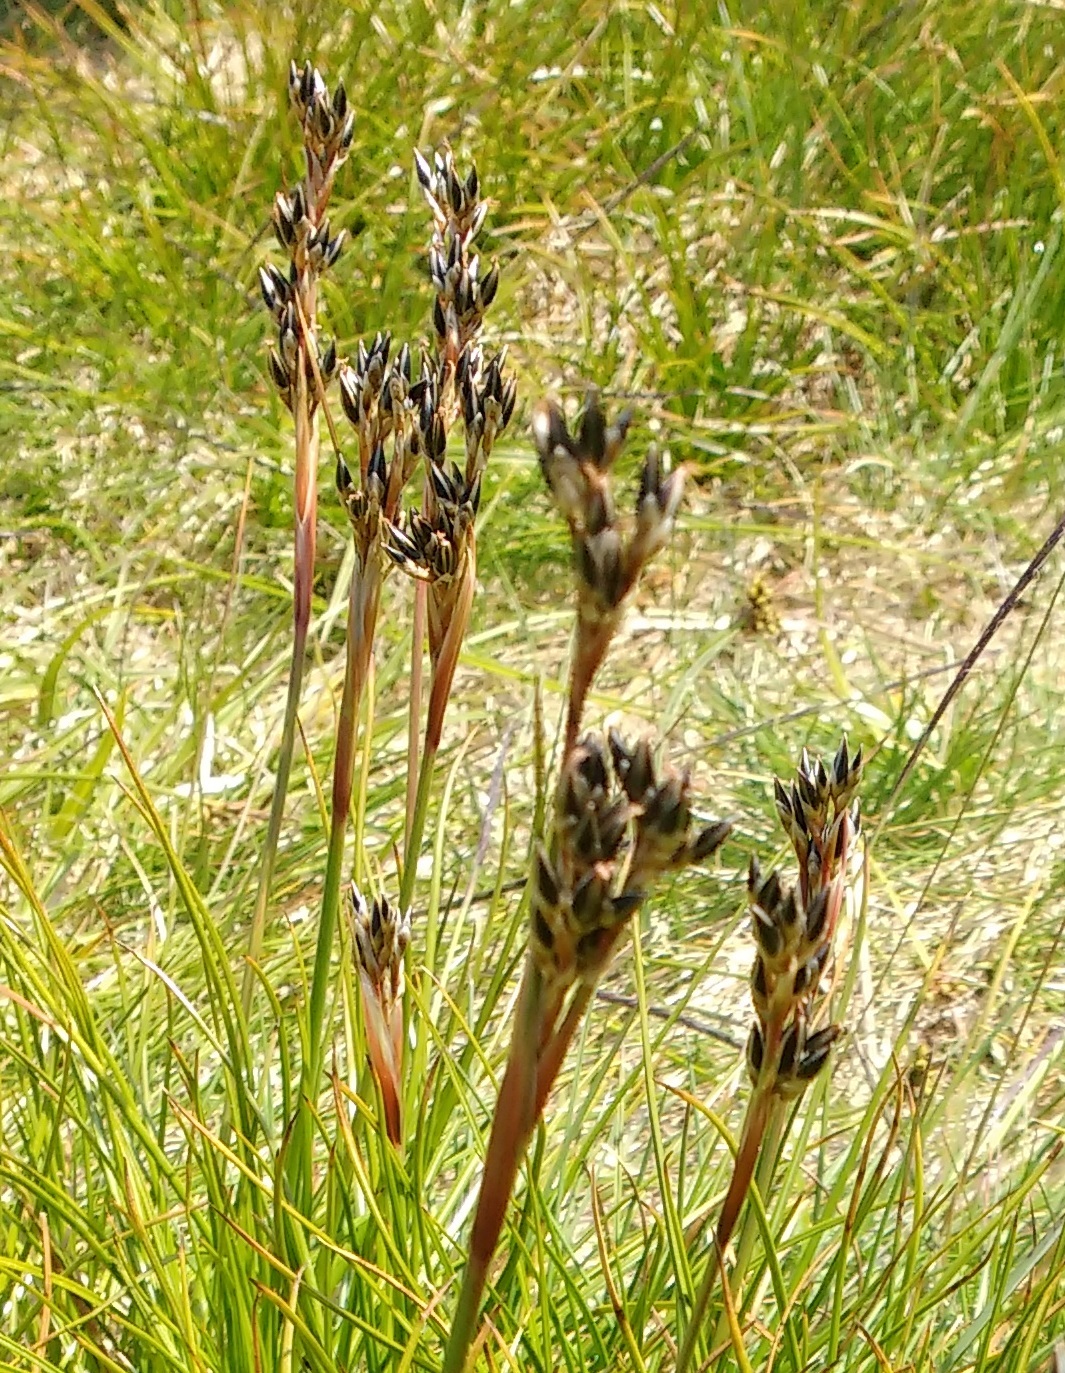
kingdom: Plantae
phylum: Tracheophyta
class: Liliopsida
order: Poales
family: Juncaceae
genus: Juncus
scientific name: Juncus squarrosus
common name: Heath rush
